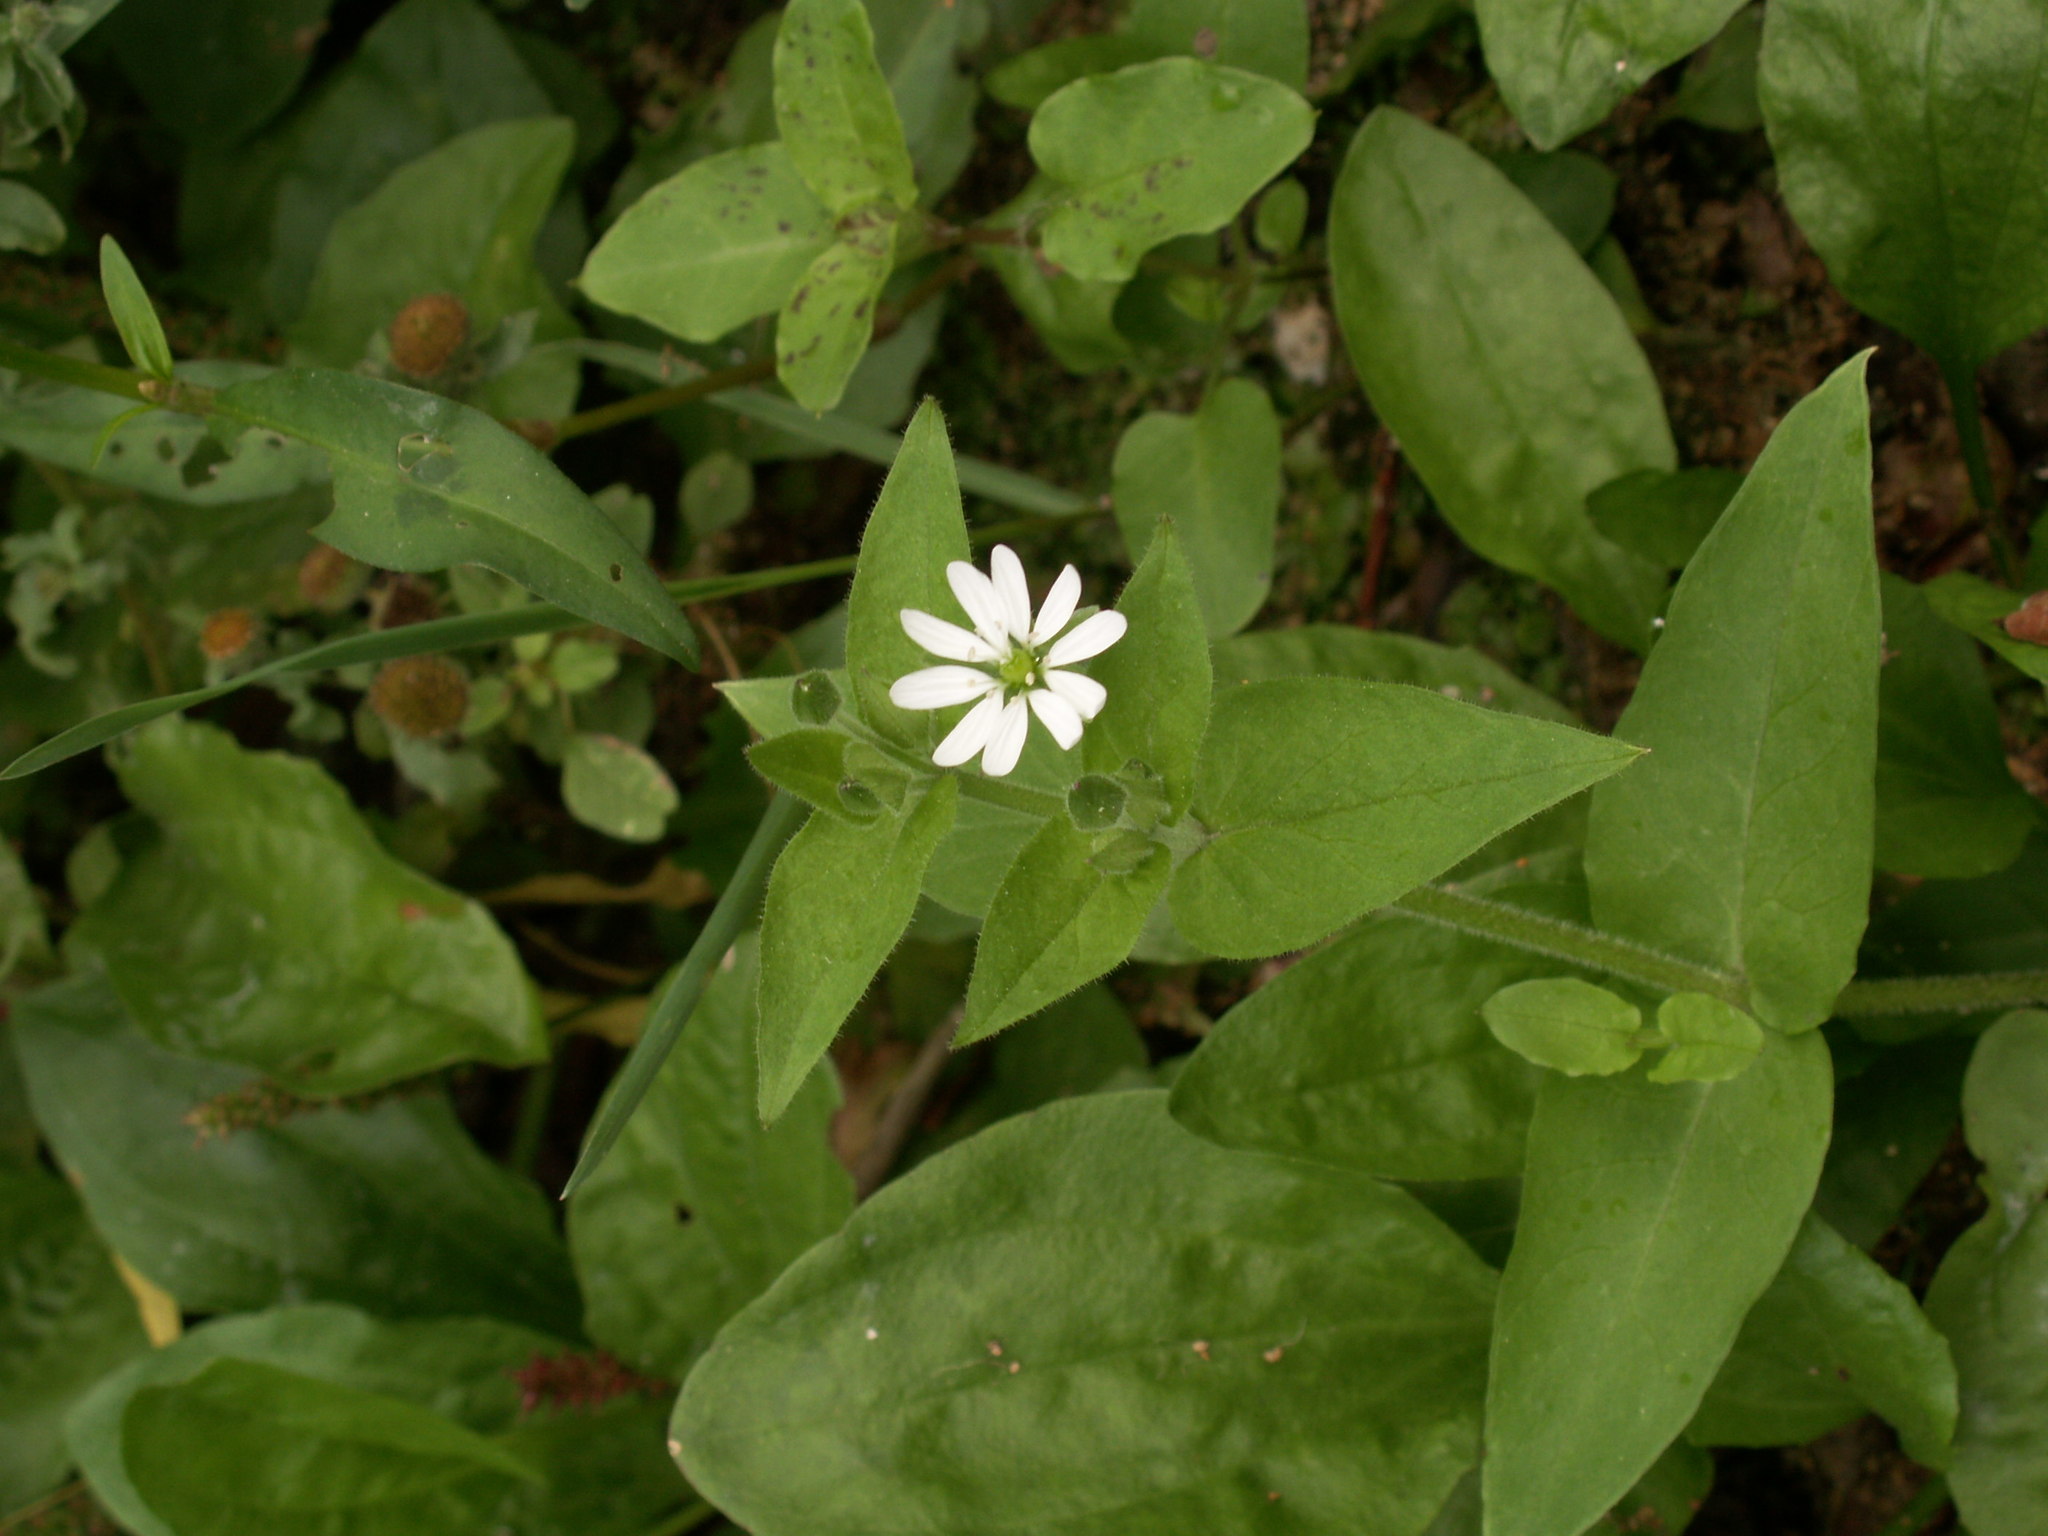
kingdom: Plantae
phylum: Tracheophyta
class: Magnoliopsida
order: Caryophyllales
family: Caryophyllaceae
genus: Stellaria
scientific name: Stellaria aquatica
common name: Water chickweed
